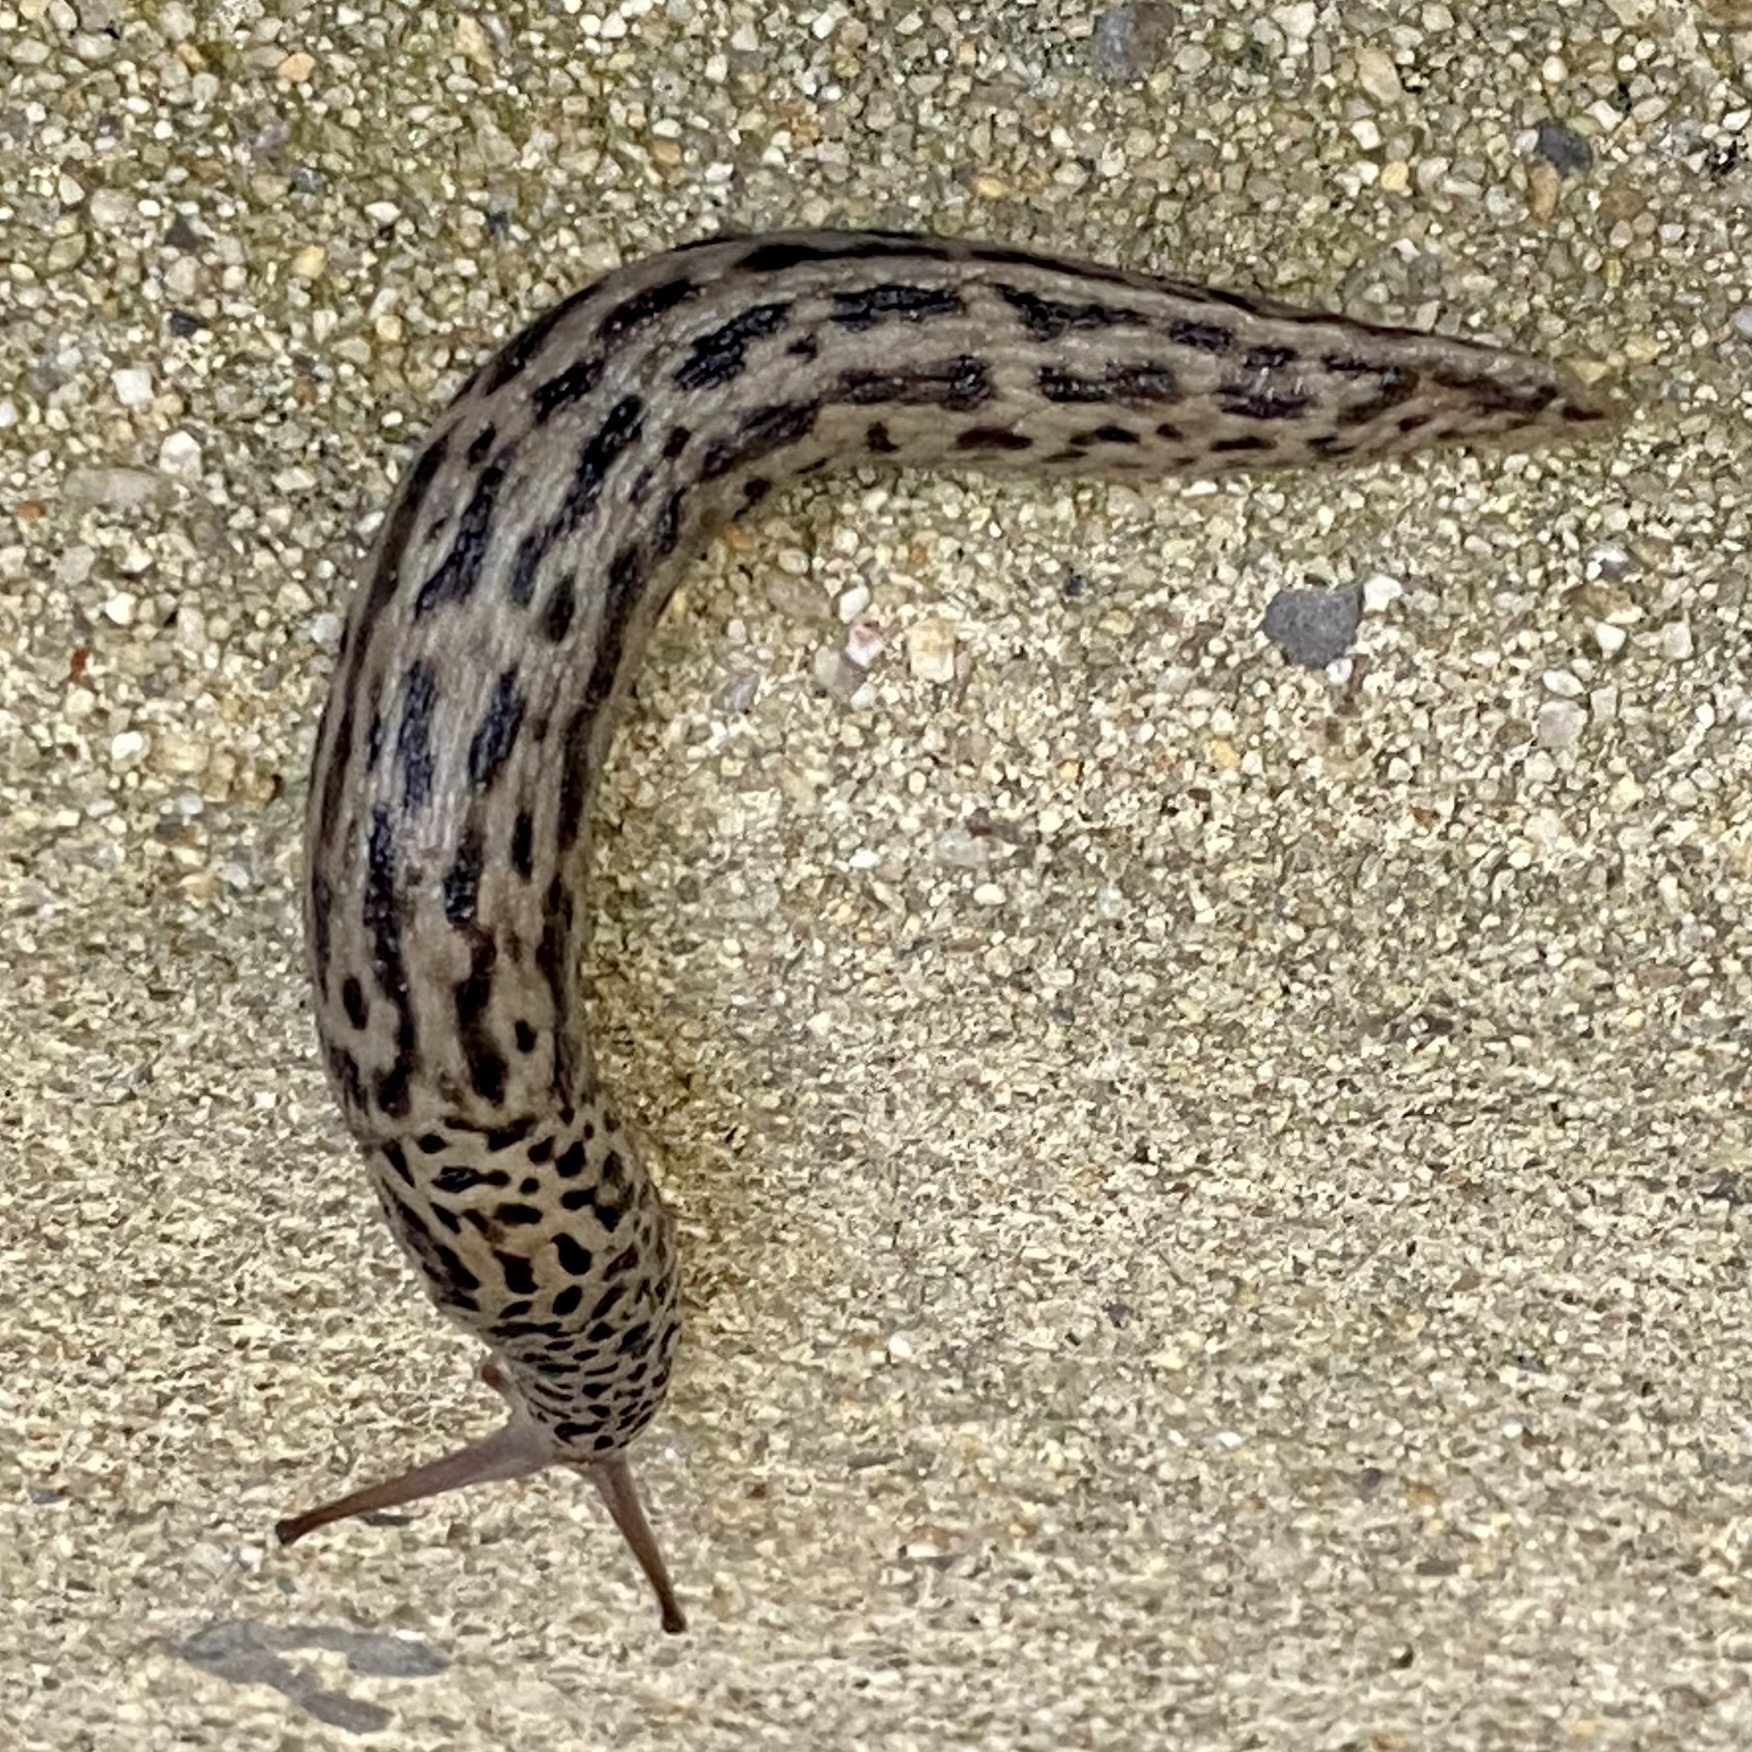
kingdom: Animalia
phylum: Mollusca
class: Gastropoda
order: Stylommatophora
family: Limacidae
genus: Limax
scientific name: Limax maximus
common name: Great grey slug
